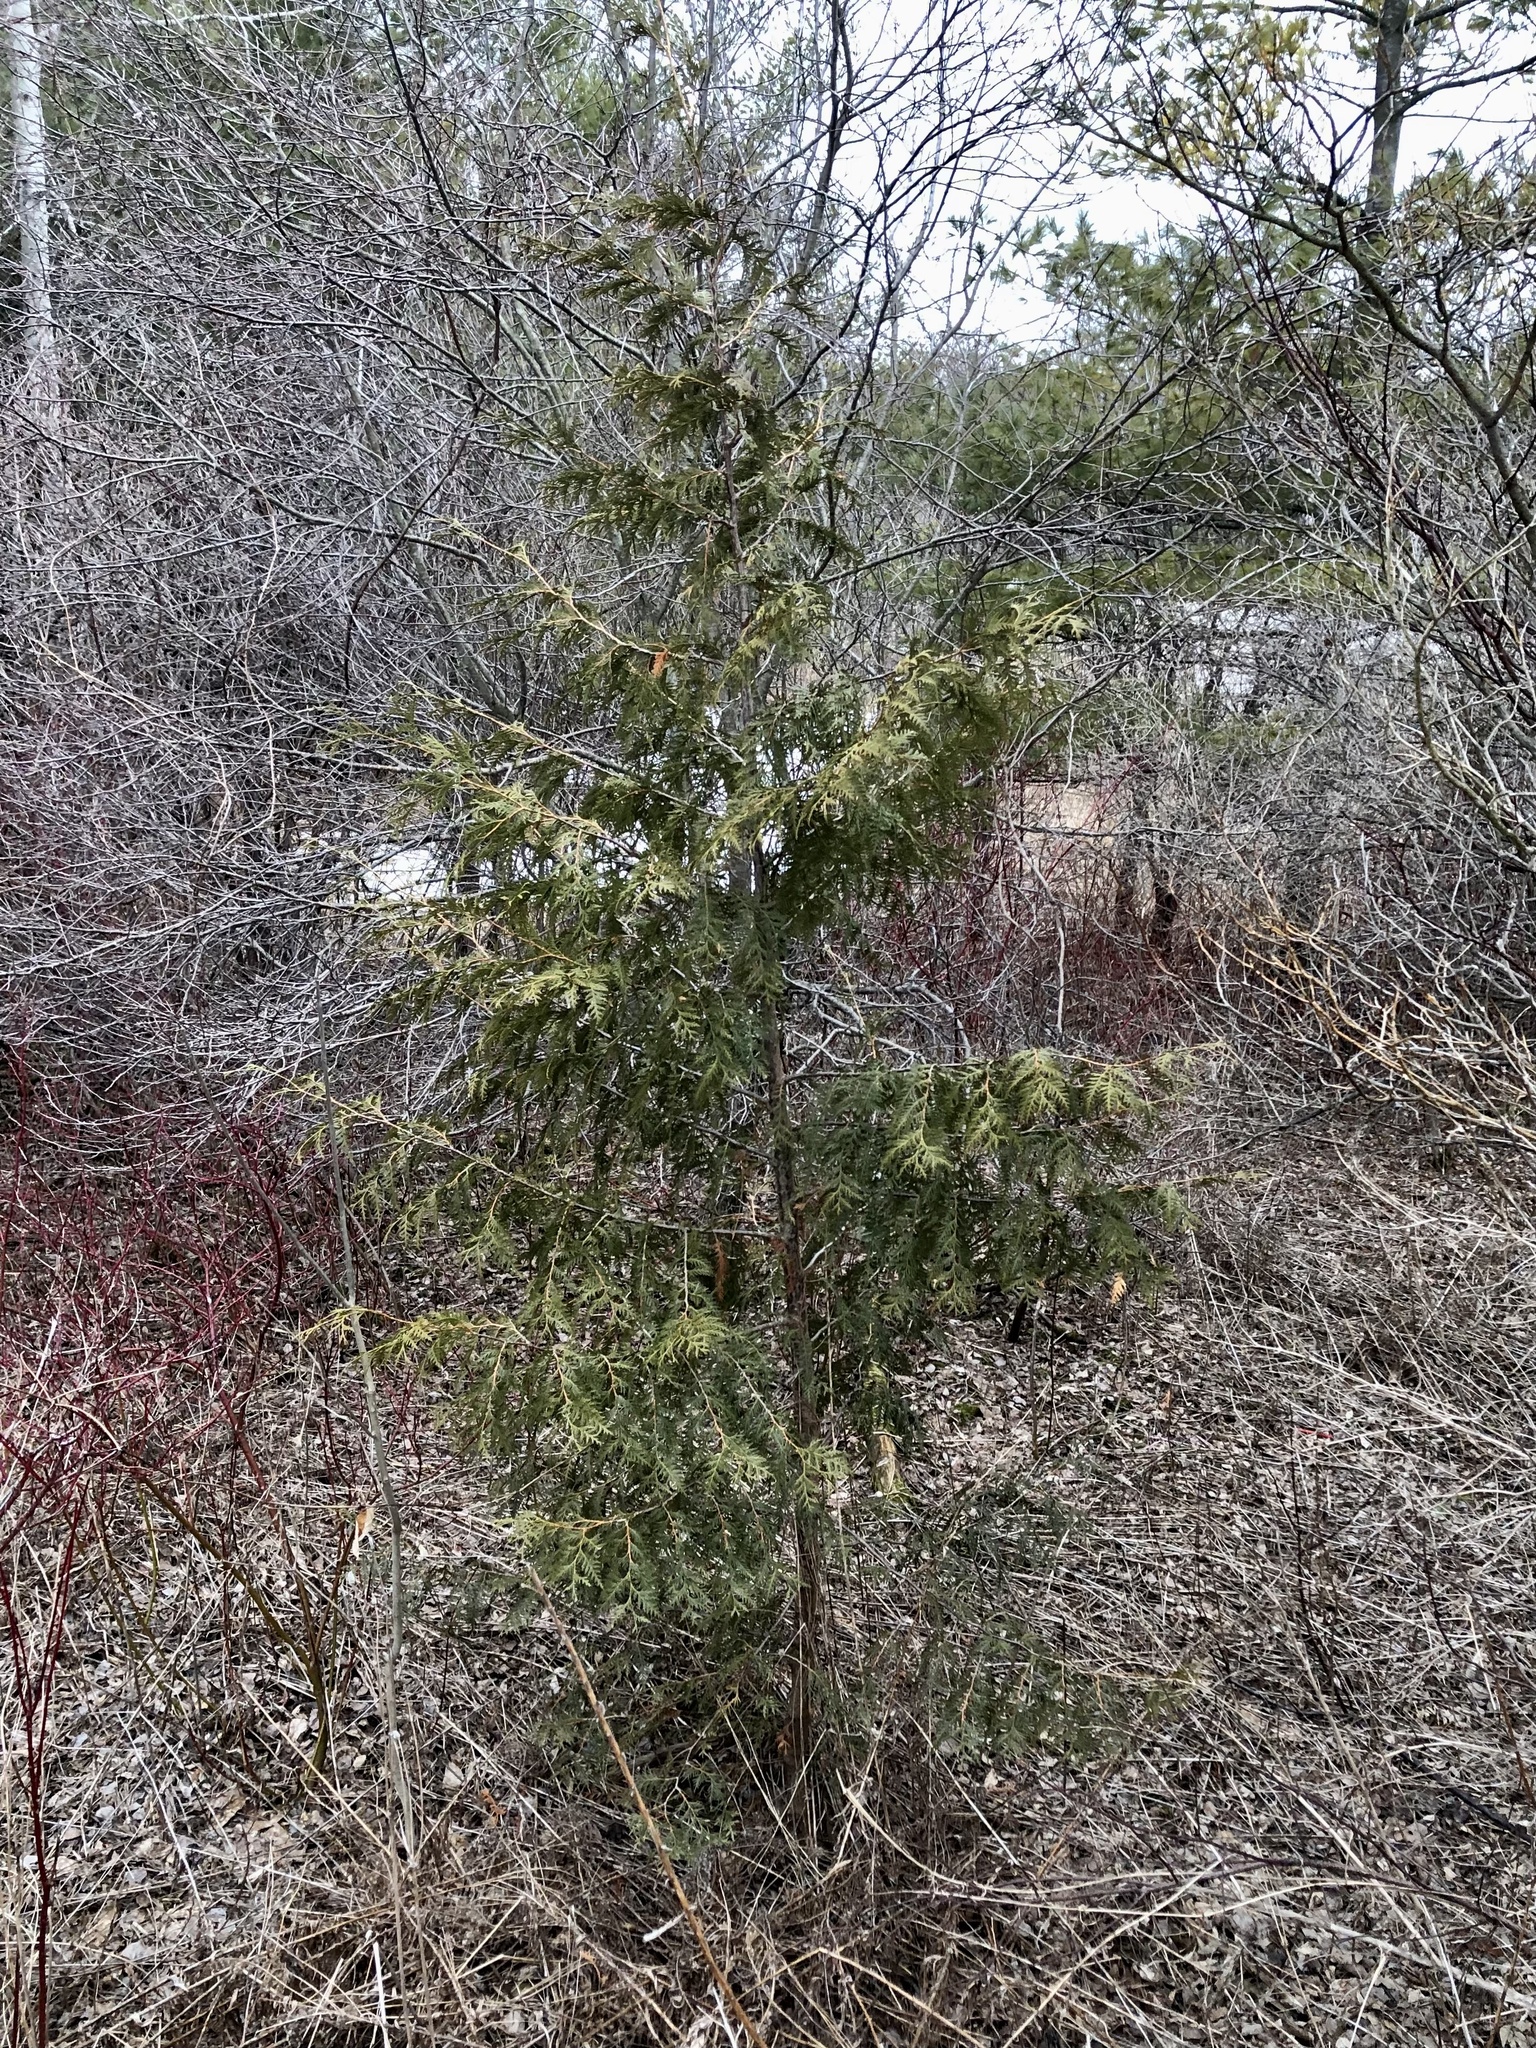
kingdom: Plantae
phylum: Tracheophyta
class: Pinopsida
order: Pinales
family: Cupressaceae
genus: Thuja
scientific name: Thuja occidentalis
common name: Northern white-cedar
